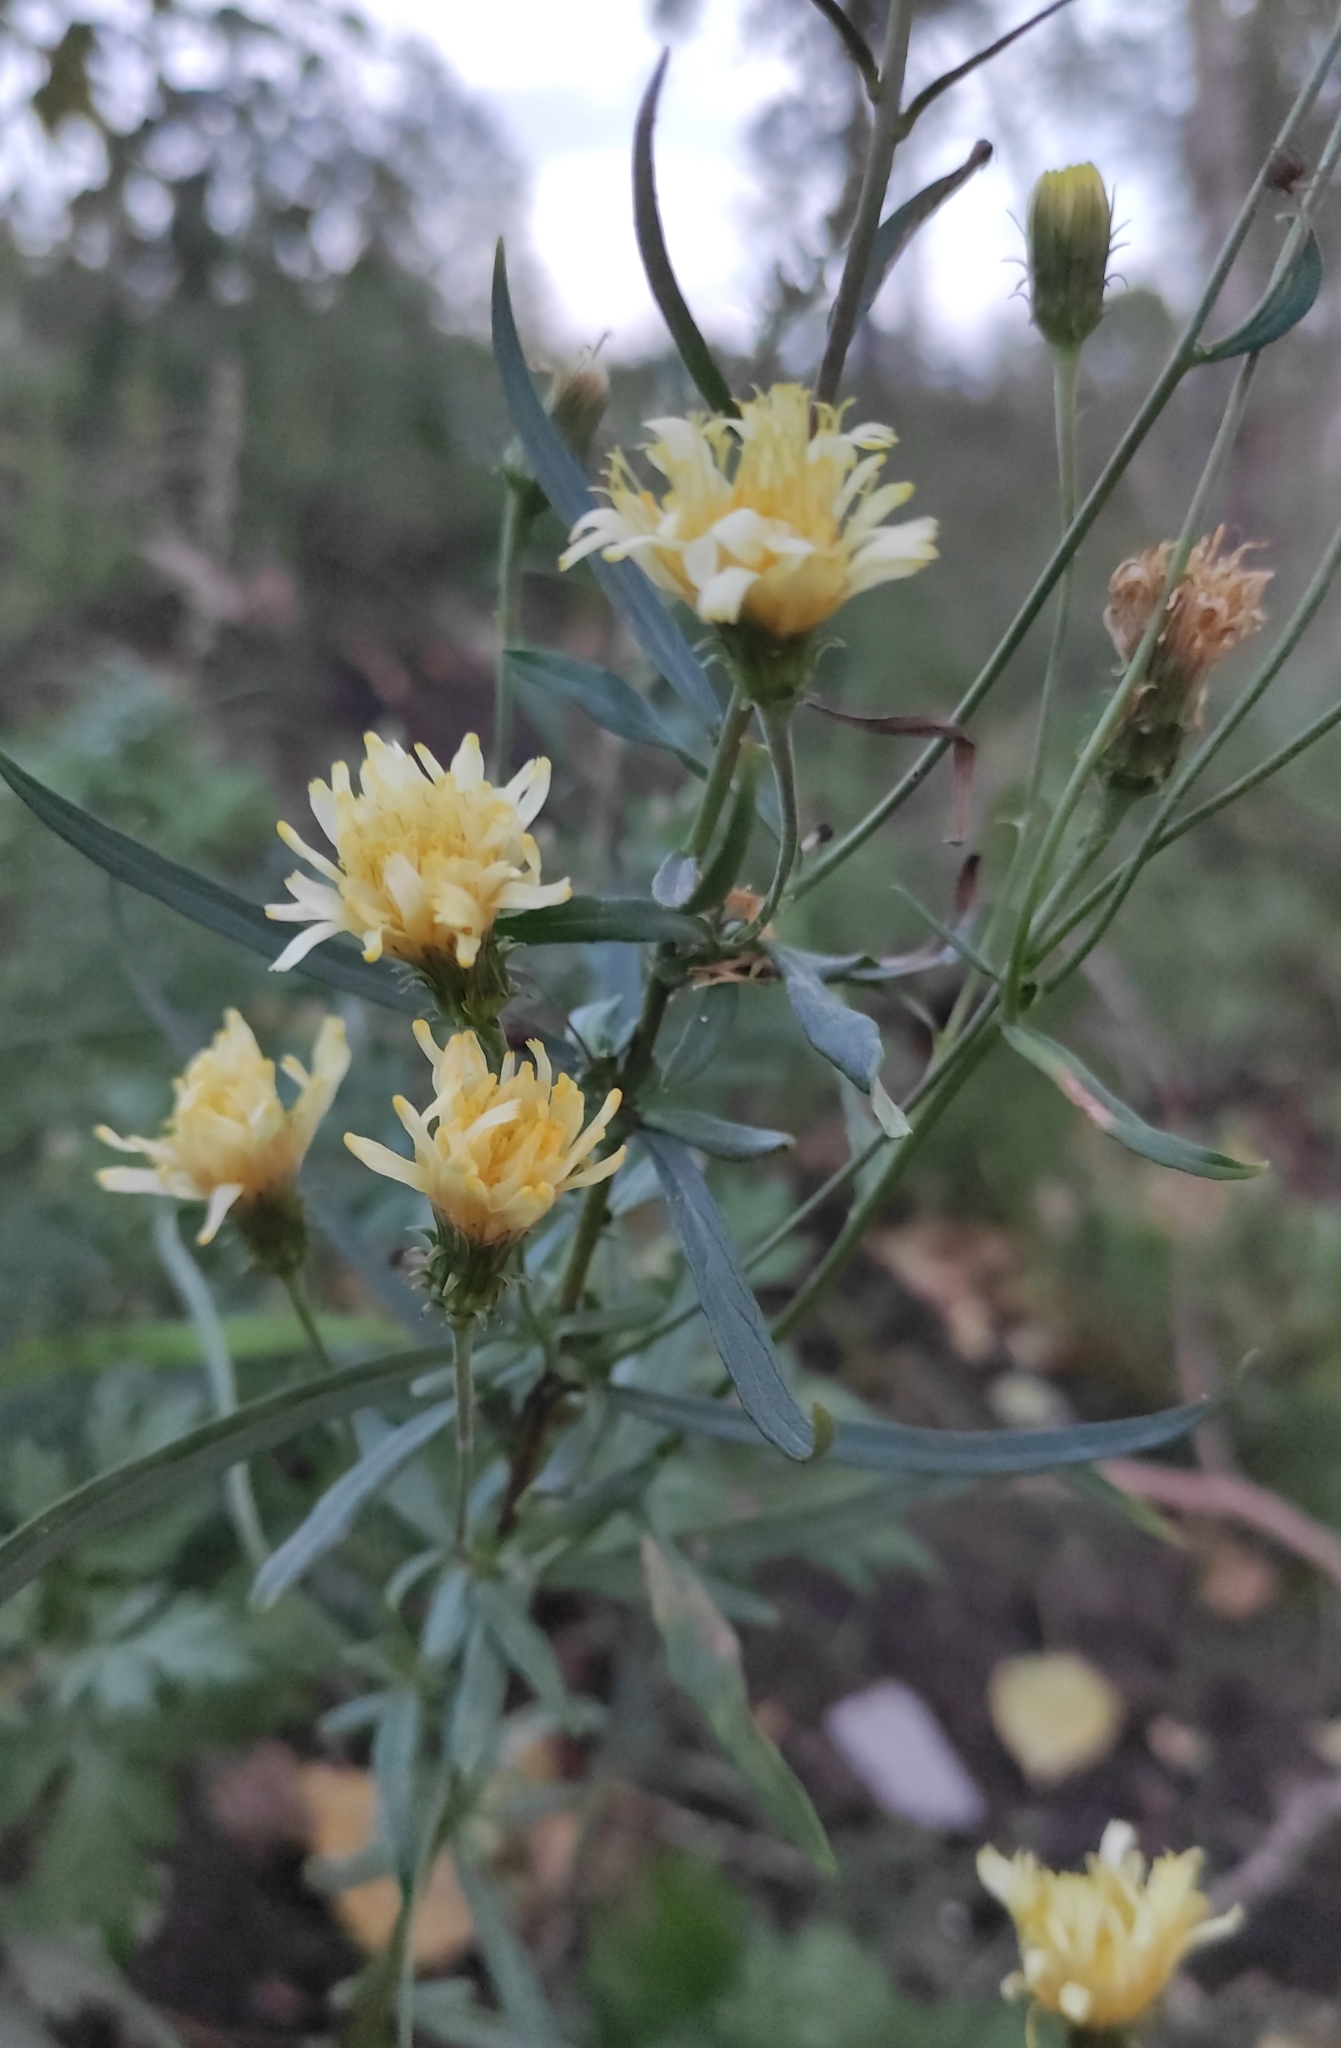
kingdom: Plantae
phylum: Tracheophyta
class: Magnoliopsida
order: Asterales
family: Asteraceae
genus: Hieracium
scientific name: Hieracium umbellatum
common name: Northern hawkweed
